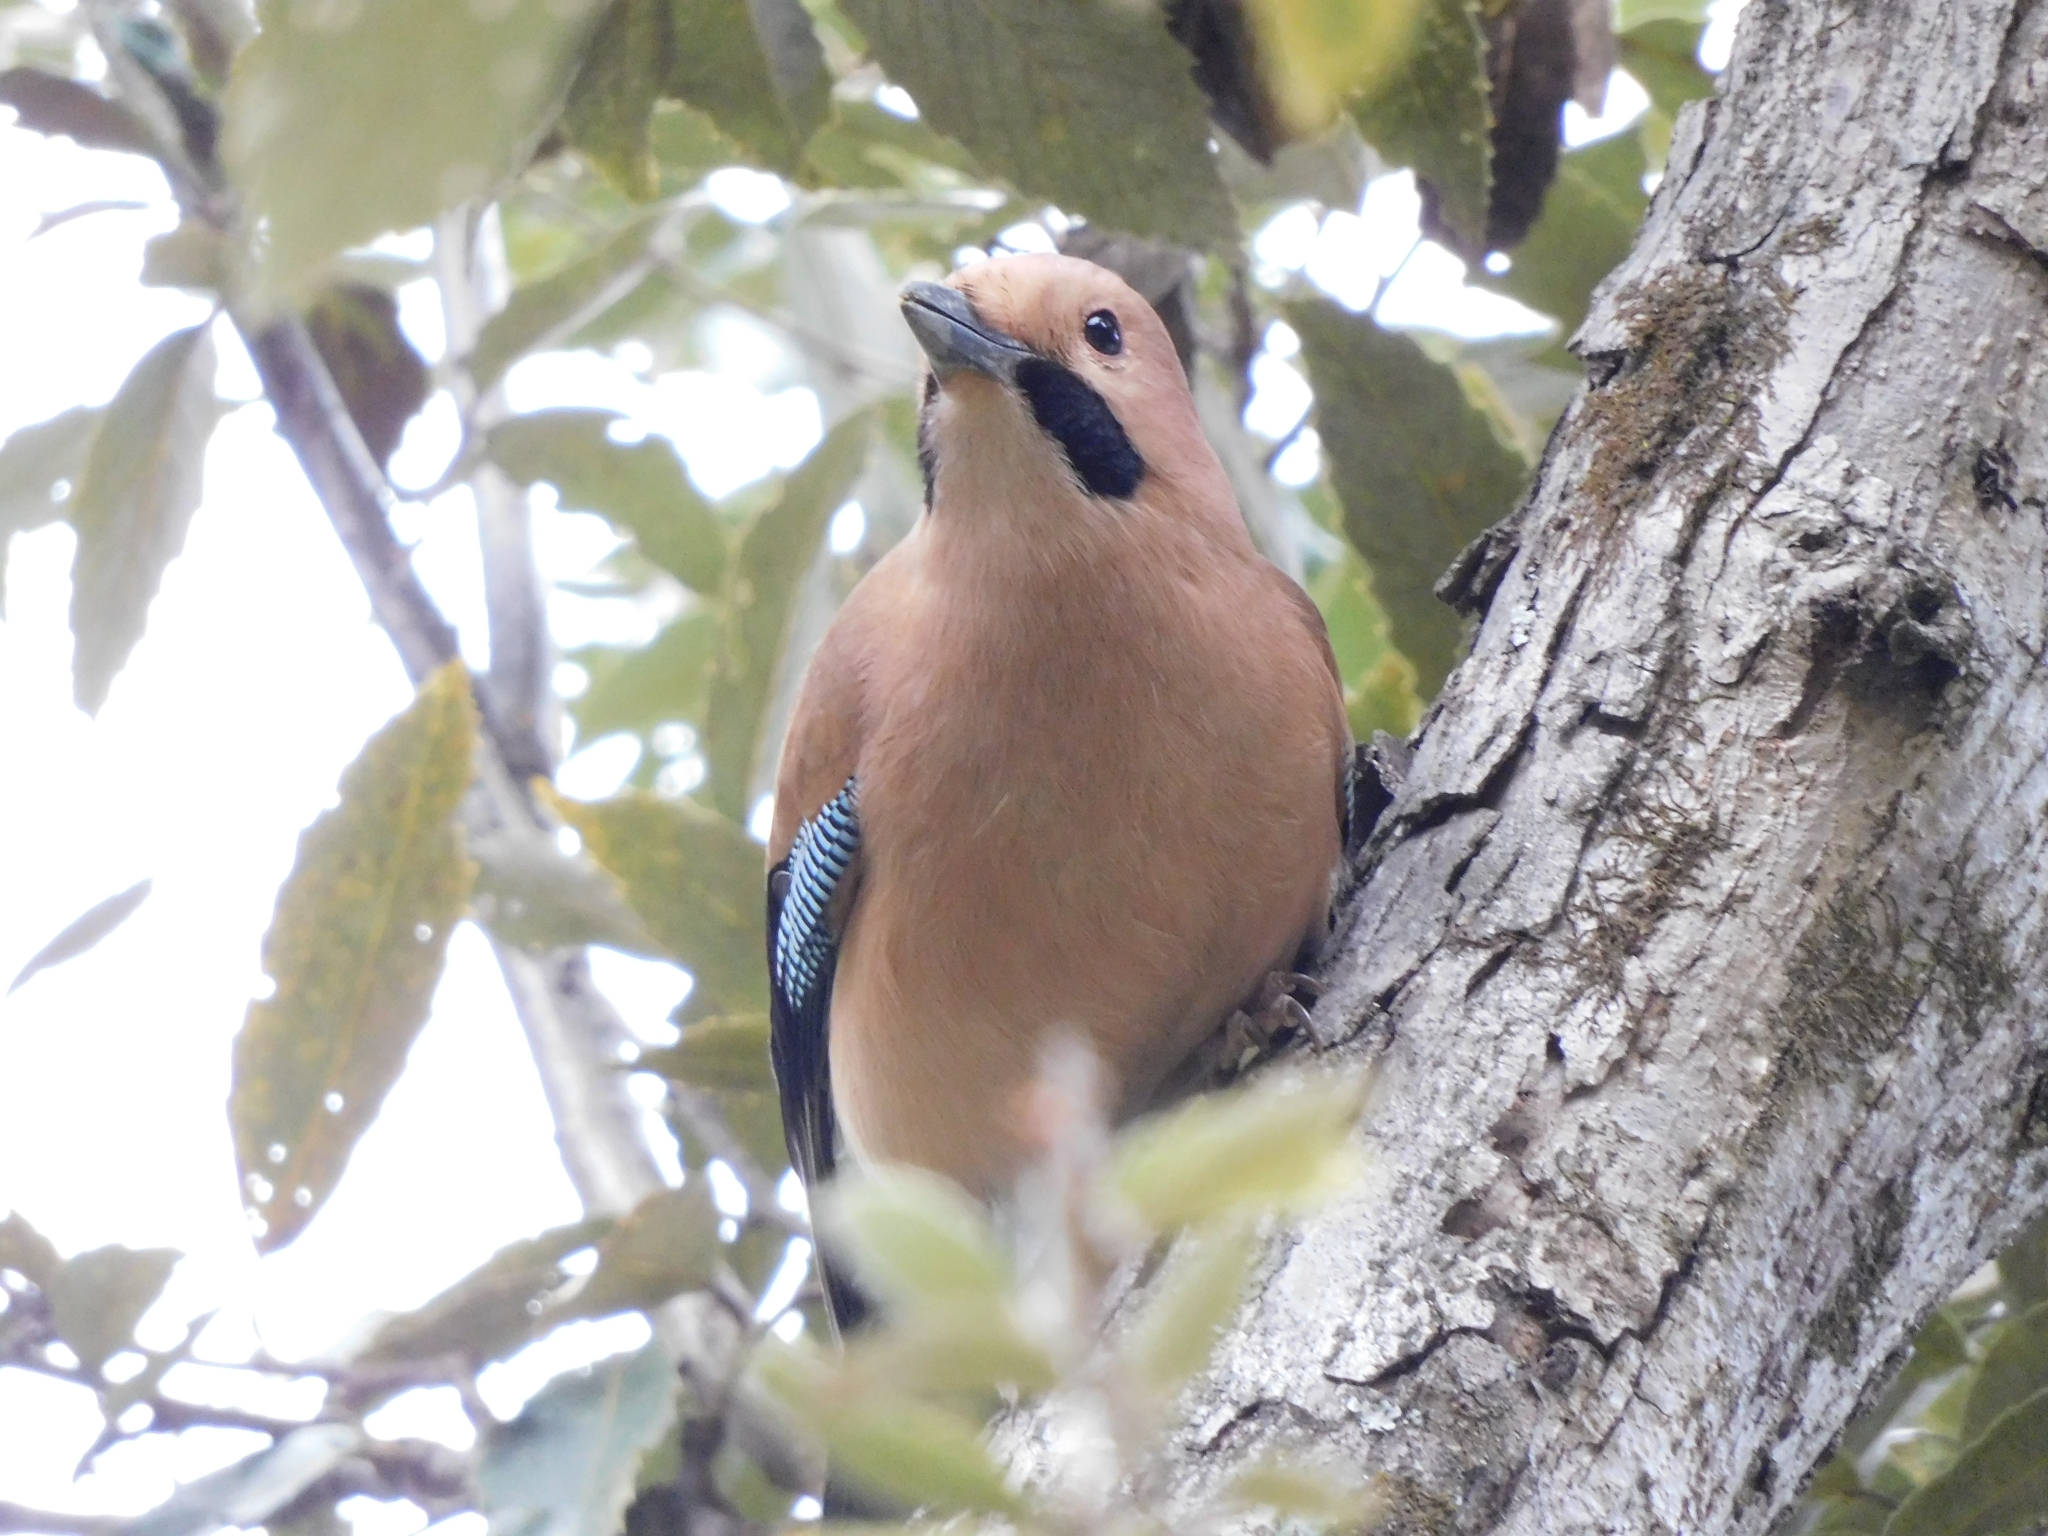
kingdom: Animalia
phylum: Chordata
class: Aves
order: Passeriformes
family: Corvidae
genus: Garrulus
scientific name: Garrulus glandarius
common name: Eurasian jay
